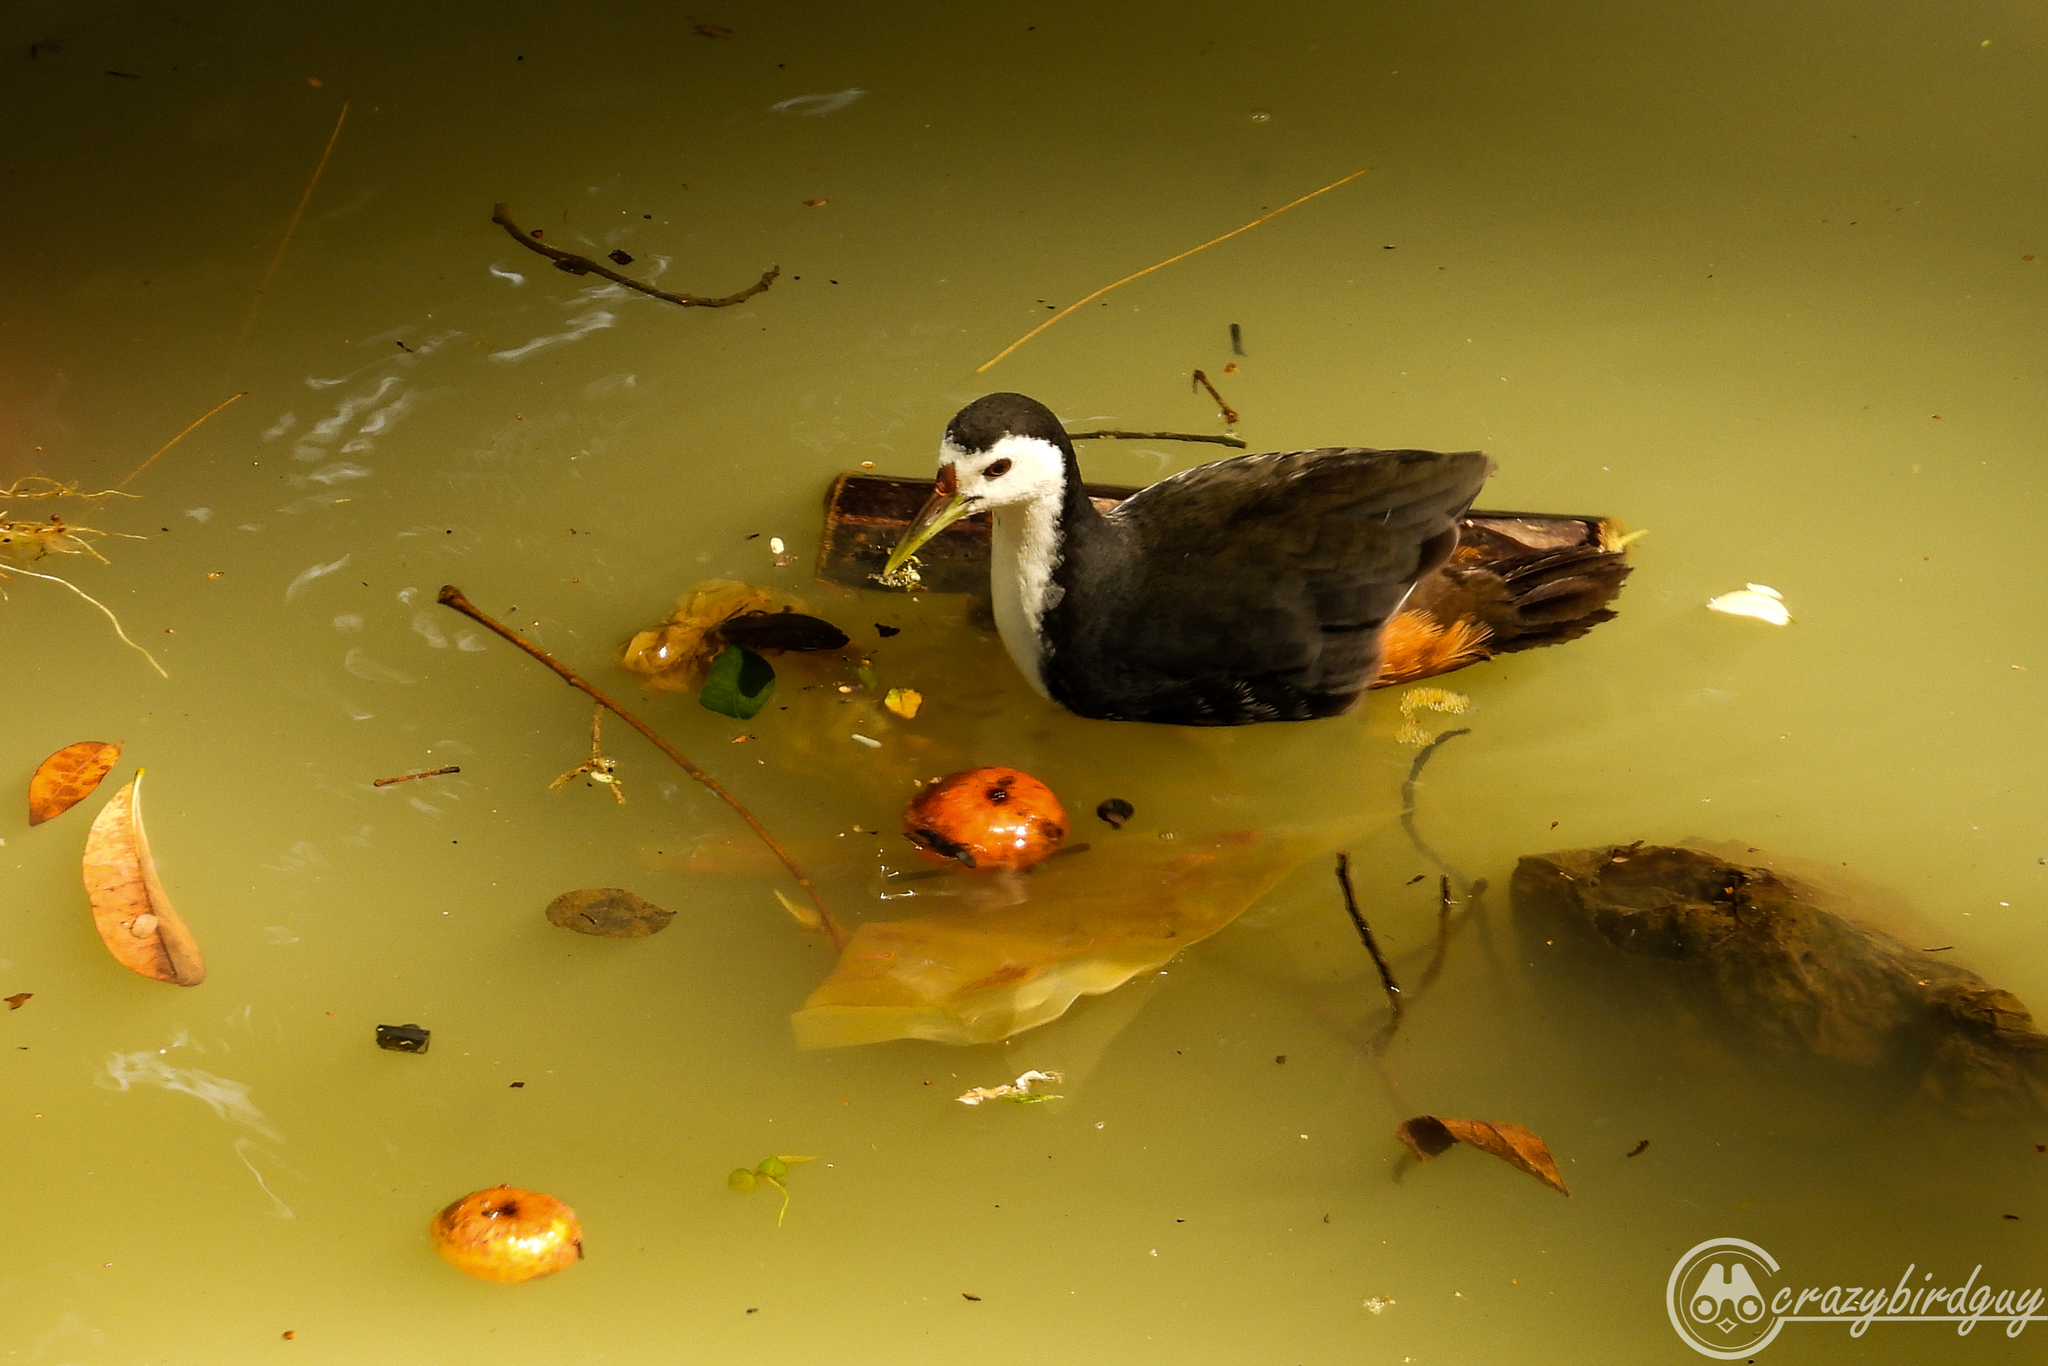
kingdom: Animalia
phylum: Chordata
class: Aves
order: Gruiformes
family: Rallidae
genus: Amaurornis
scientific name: Amaurornis phoenicurus
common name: White-breasted waterhen
